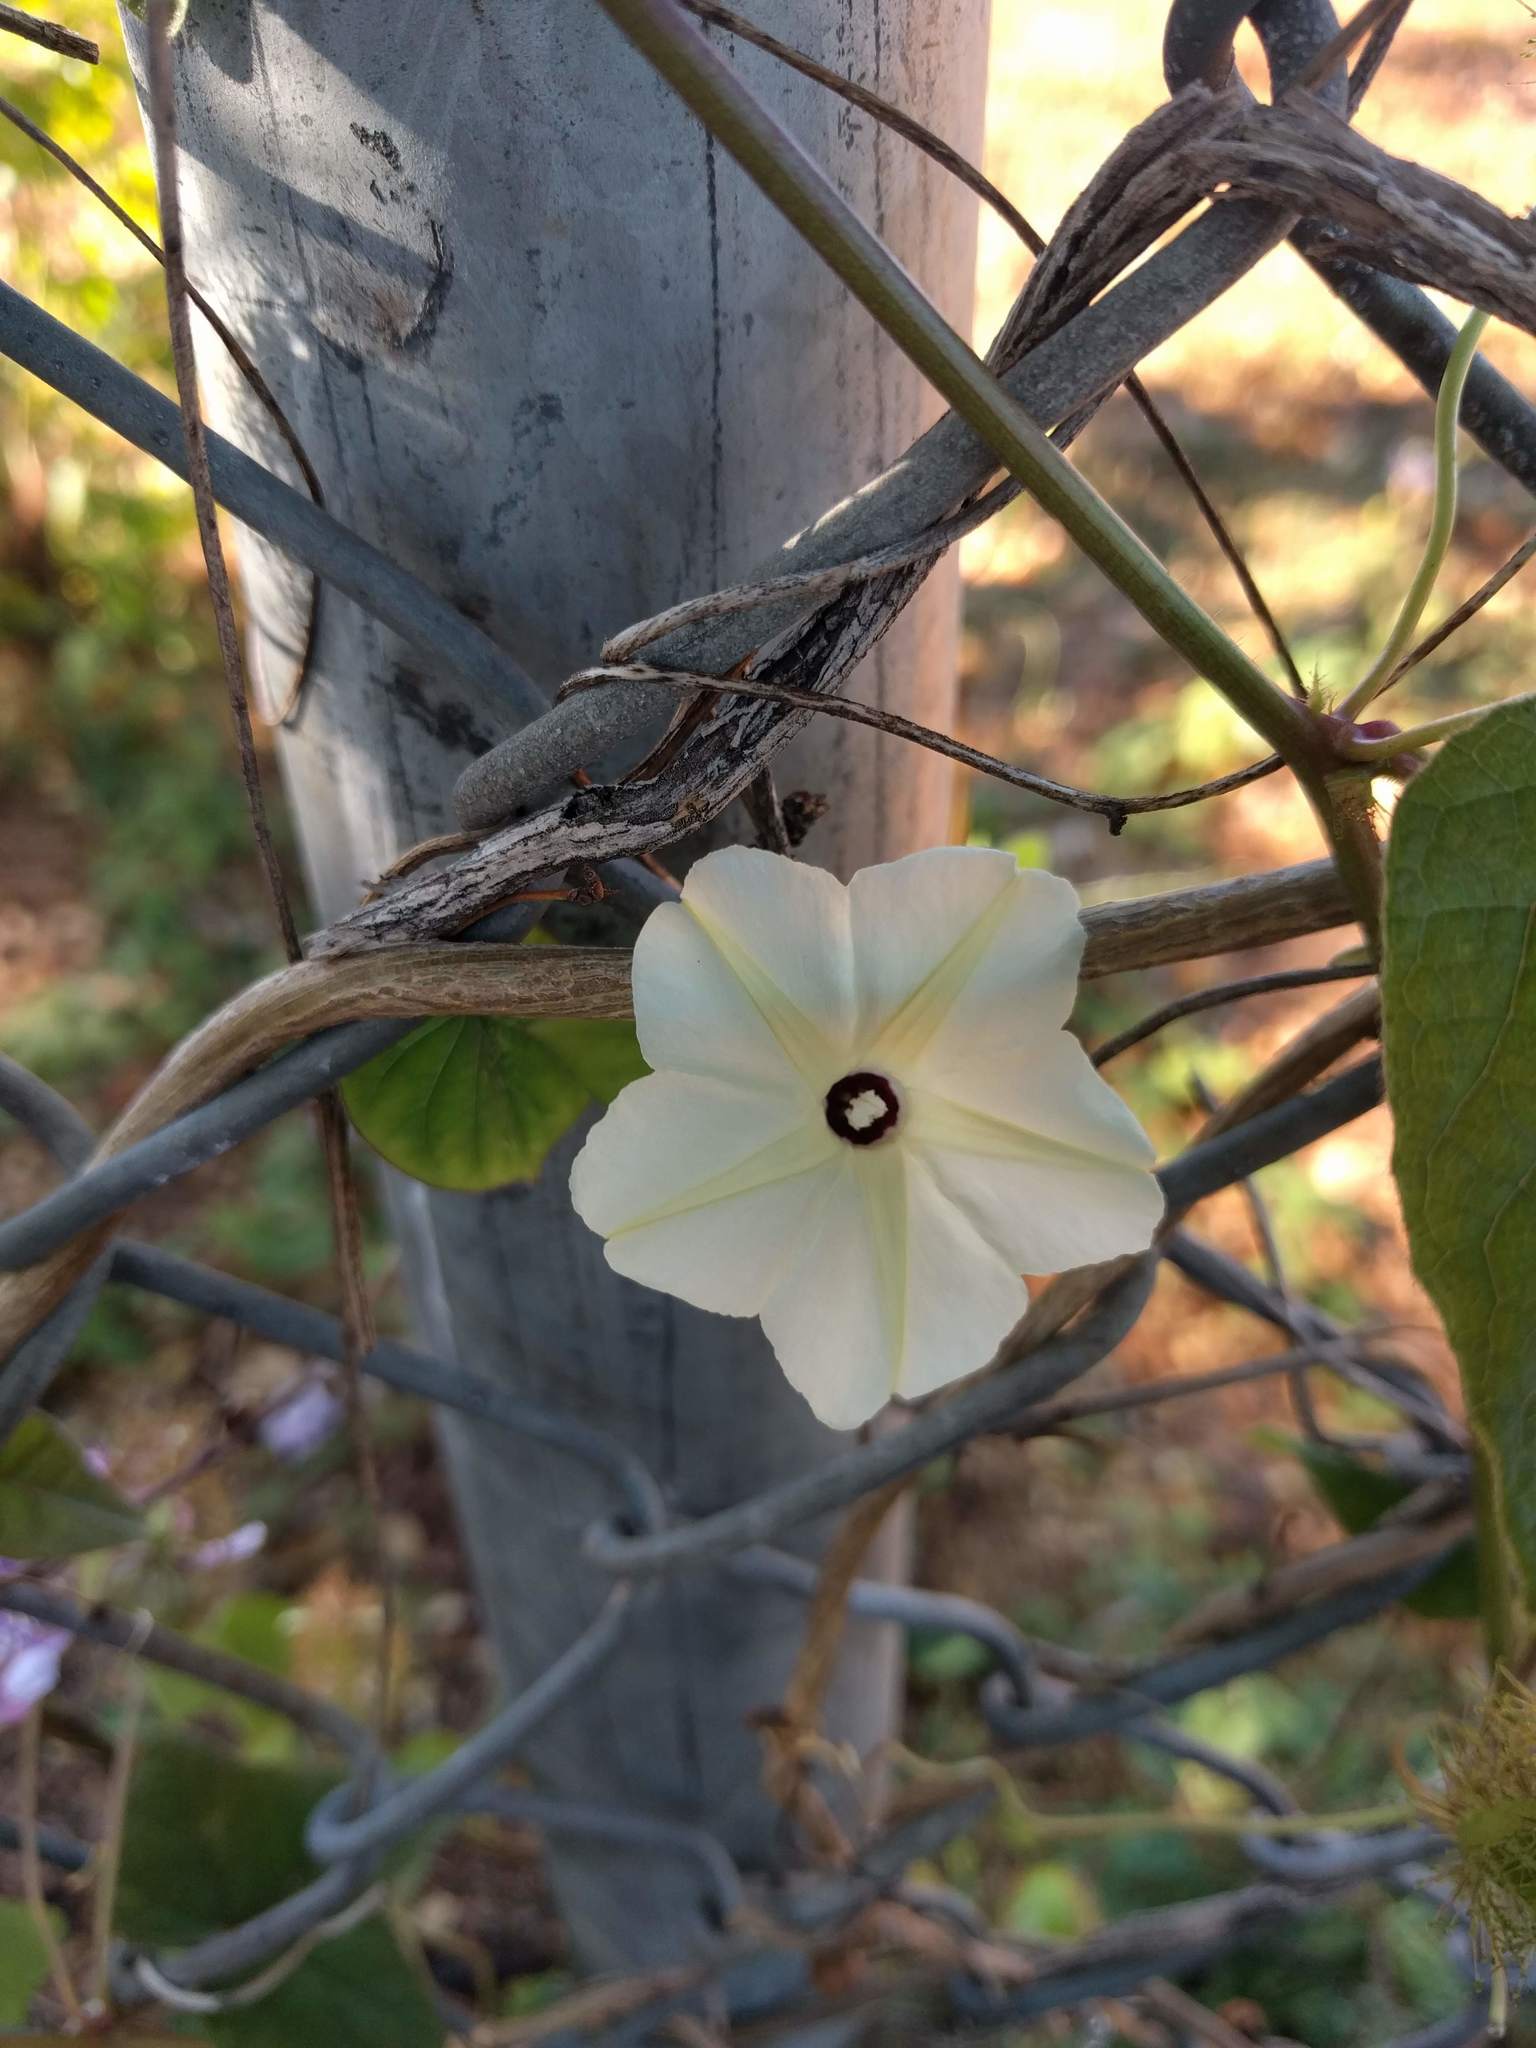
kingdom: Plantae
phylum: Tracheophyta
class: Magnoliopsida
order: Solanales
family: Convolvulaceae
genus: Ipomoea
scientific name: Ipomoea obscura
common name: Obscure morning-glory
